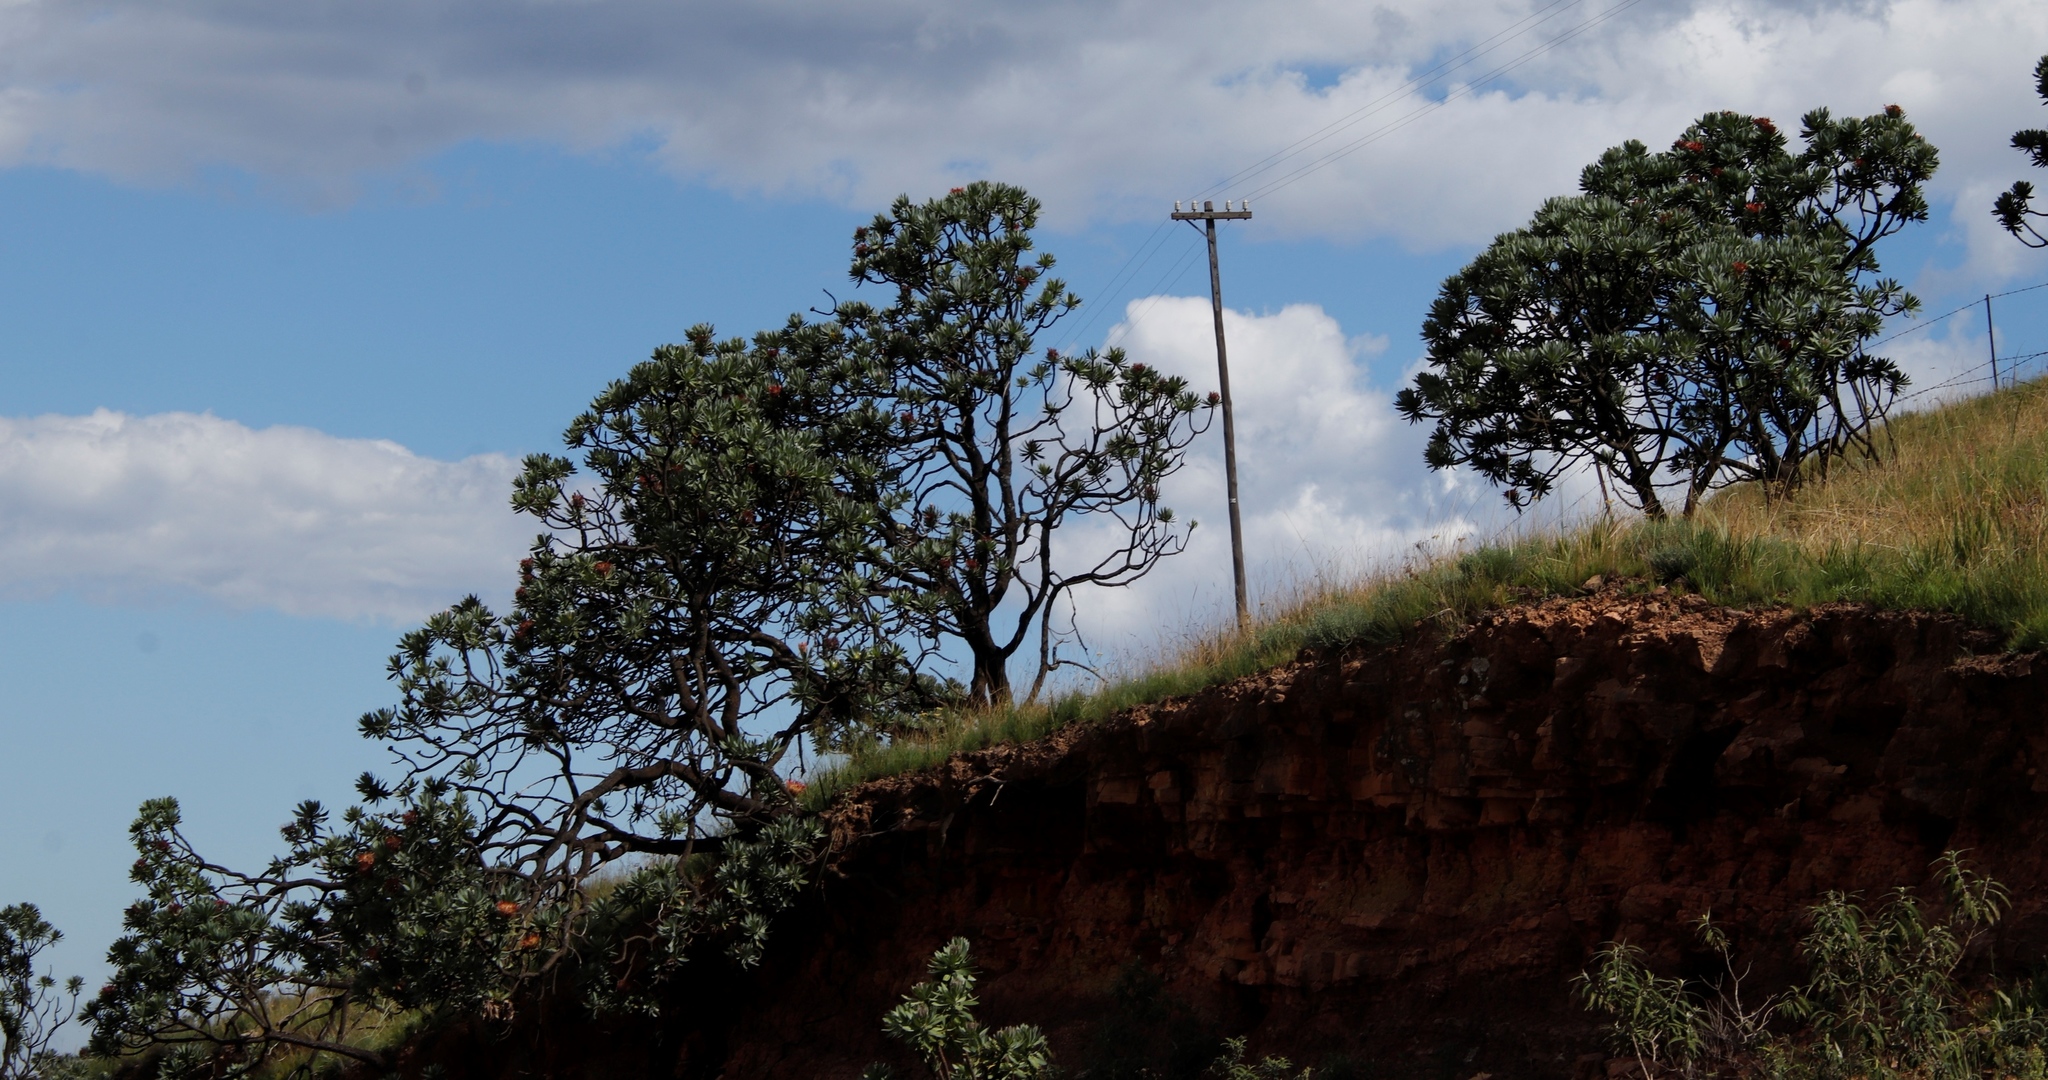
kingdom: Plantae
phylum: Tracheophyta
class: Magnoliopsida
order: Proteales
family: Proteaceae
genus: Protea
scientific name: Protea roupelliae
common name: Silver sugarbush
